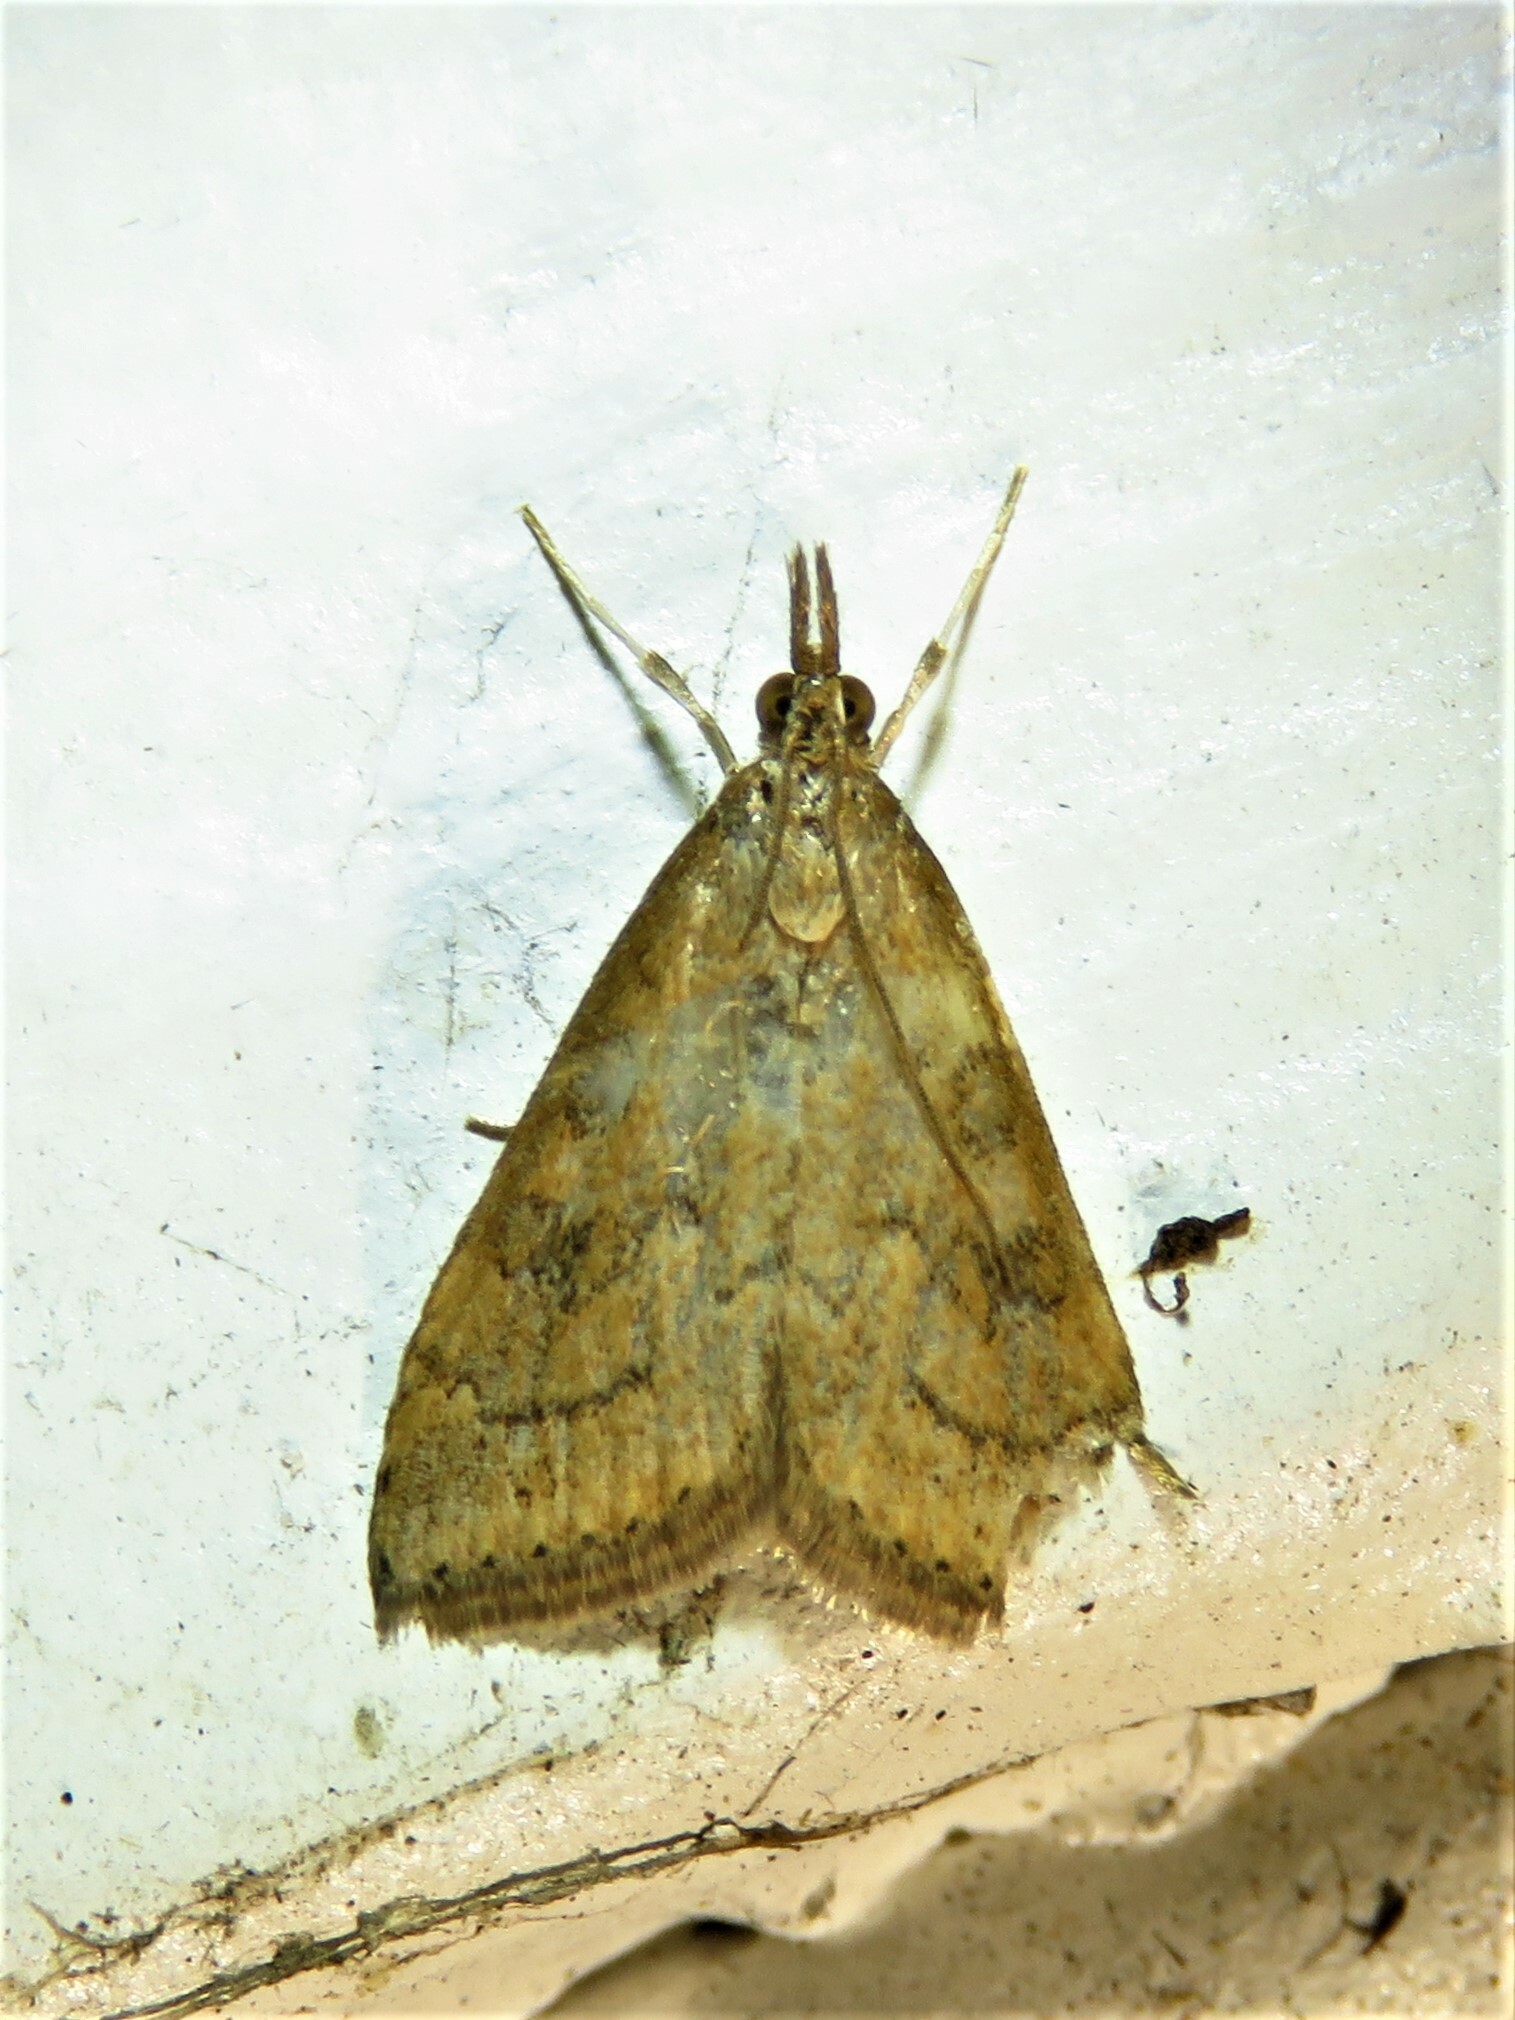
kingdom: Animalia
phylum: Arthropoda
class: Insecta
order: Lepidoptera
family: Crambidae
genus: Udea
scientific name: Udea rubigalis
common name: Celery leaftier moth
